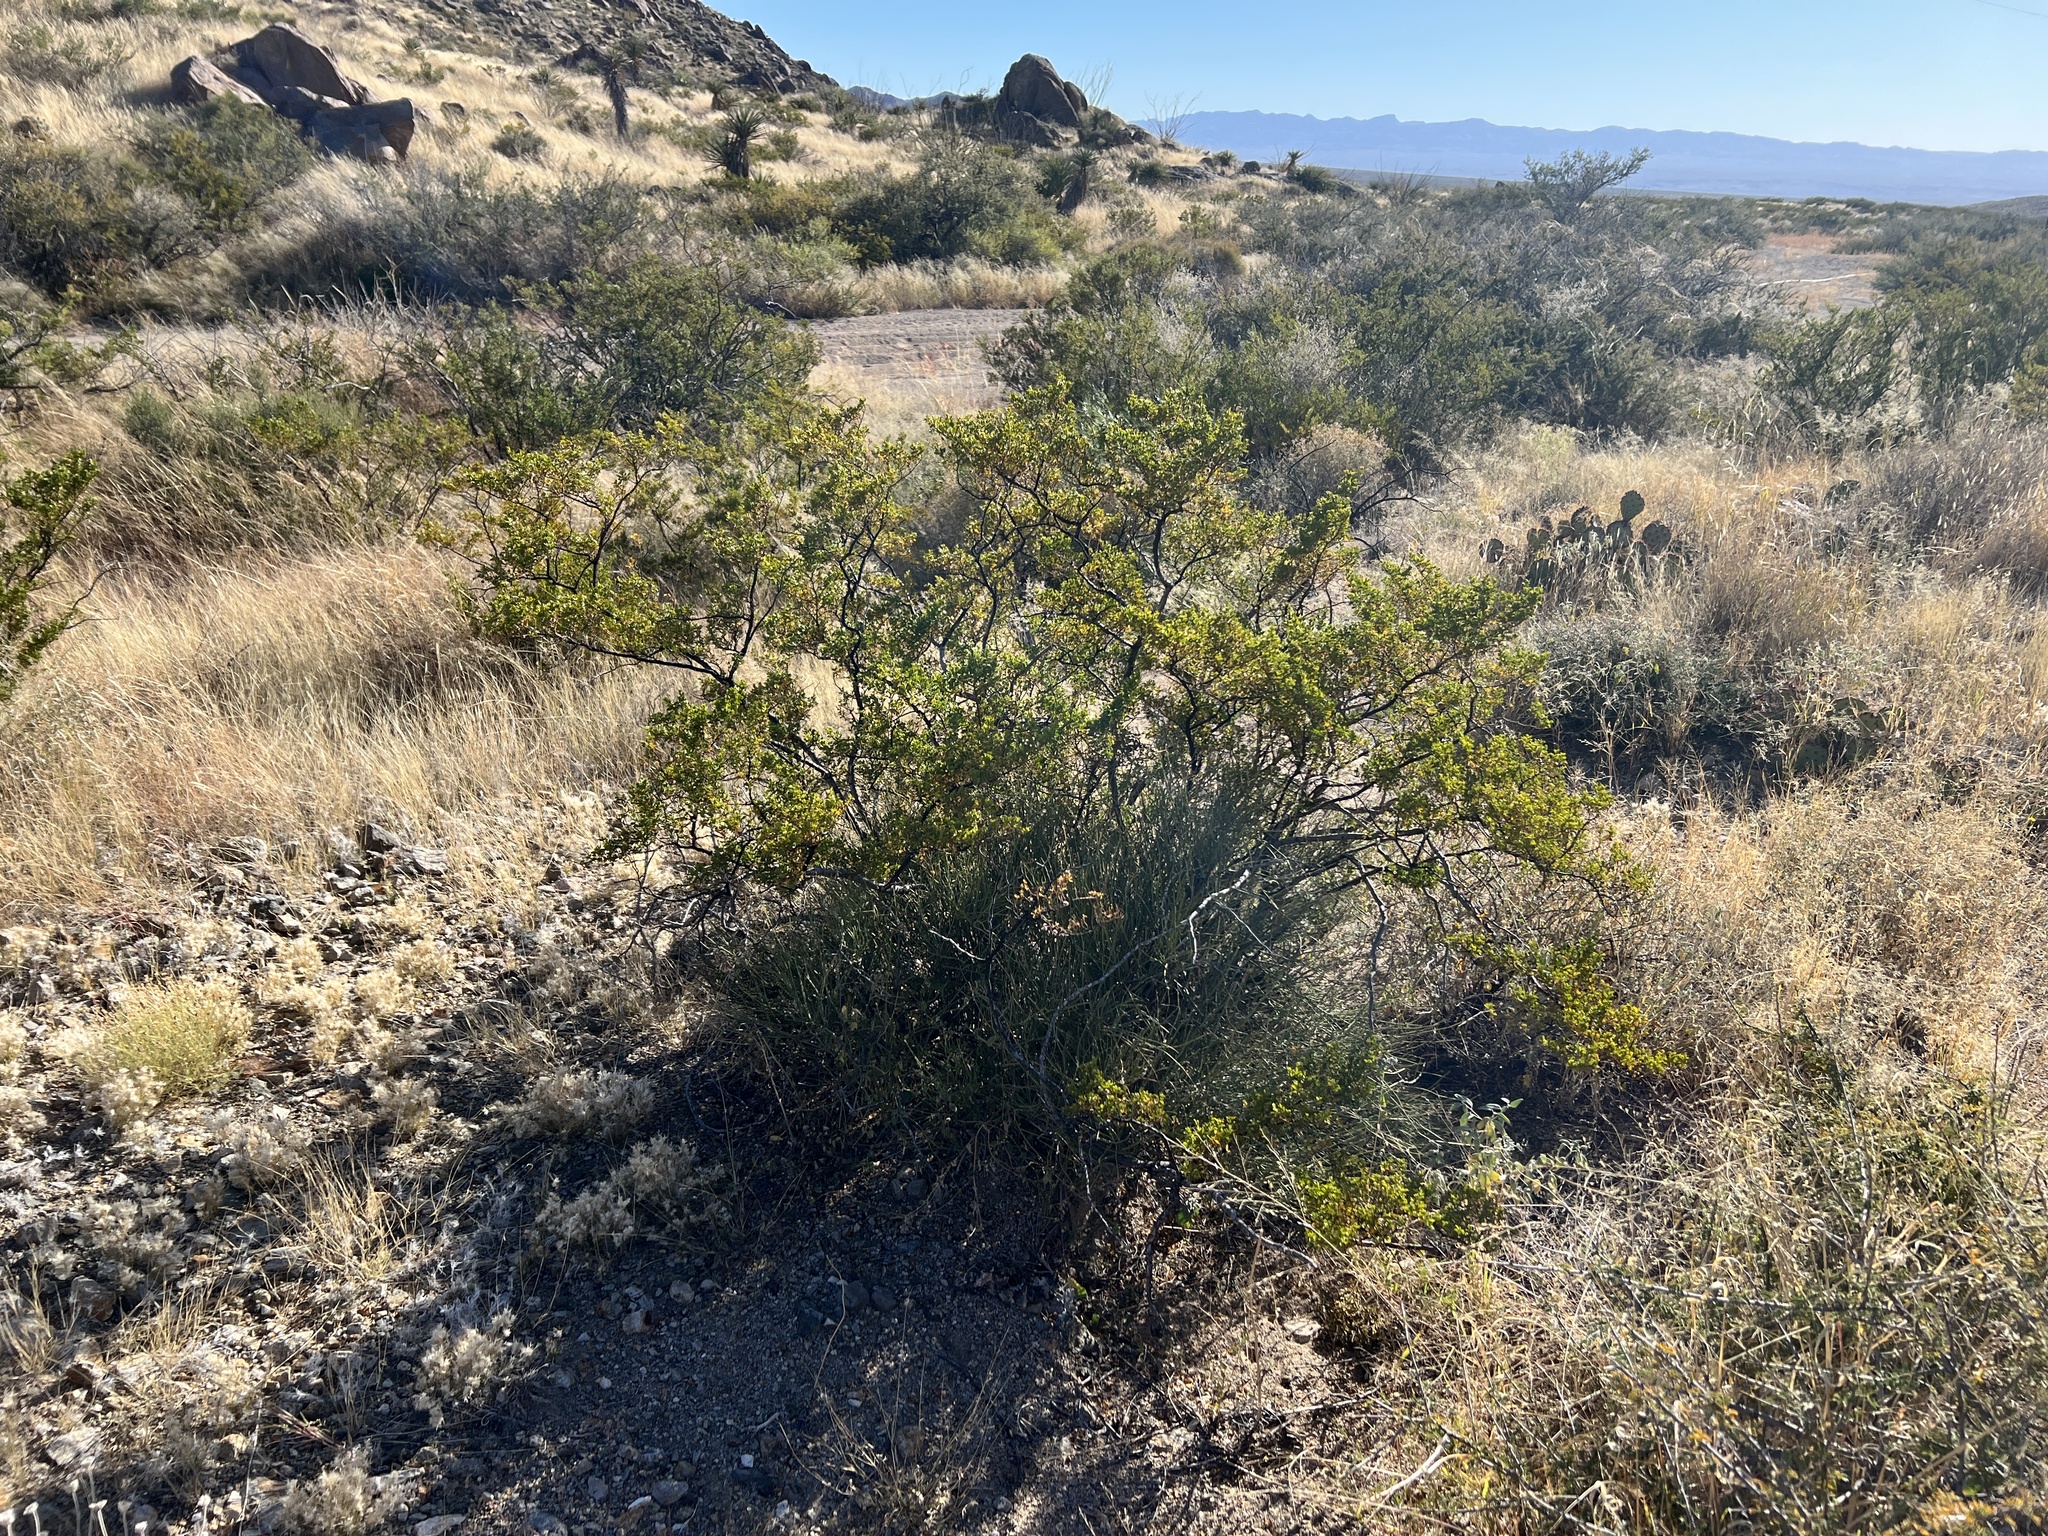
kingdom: Plantae
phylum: Tracheophyta
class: Magnoliopsida
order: Zygophyllales
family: Zygophyllaceae
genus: Larrea
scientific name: Larrea tridentata
